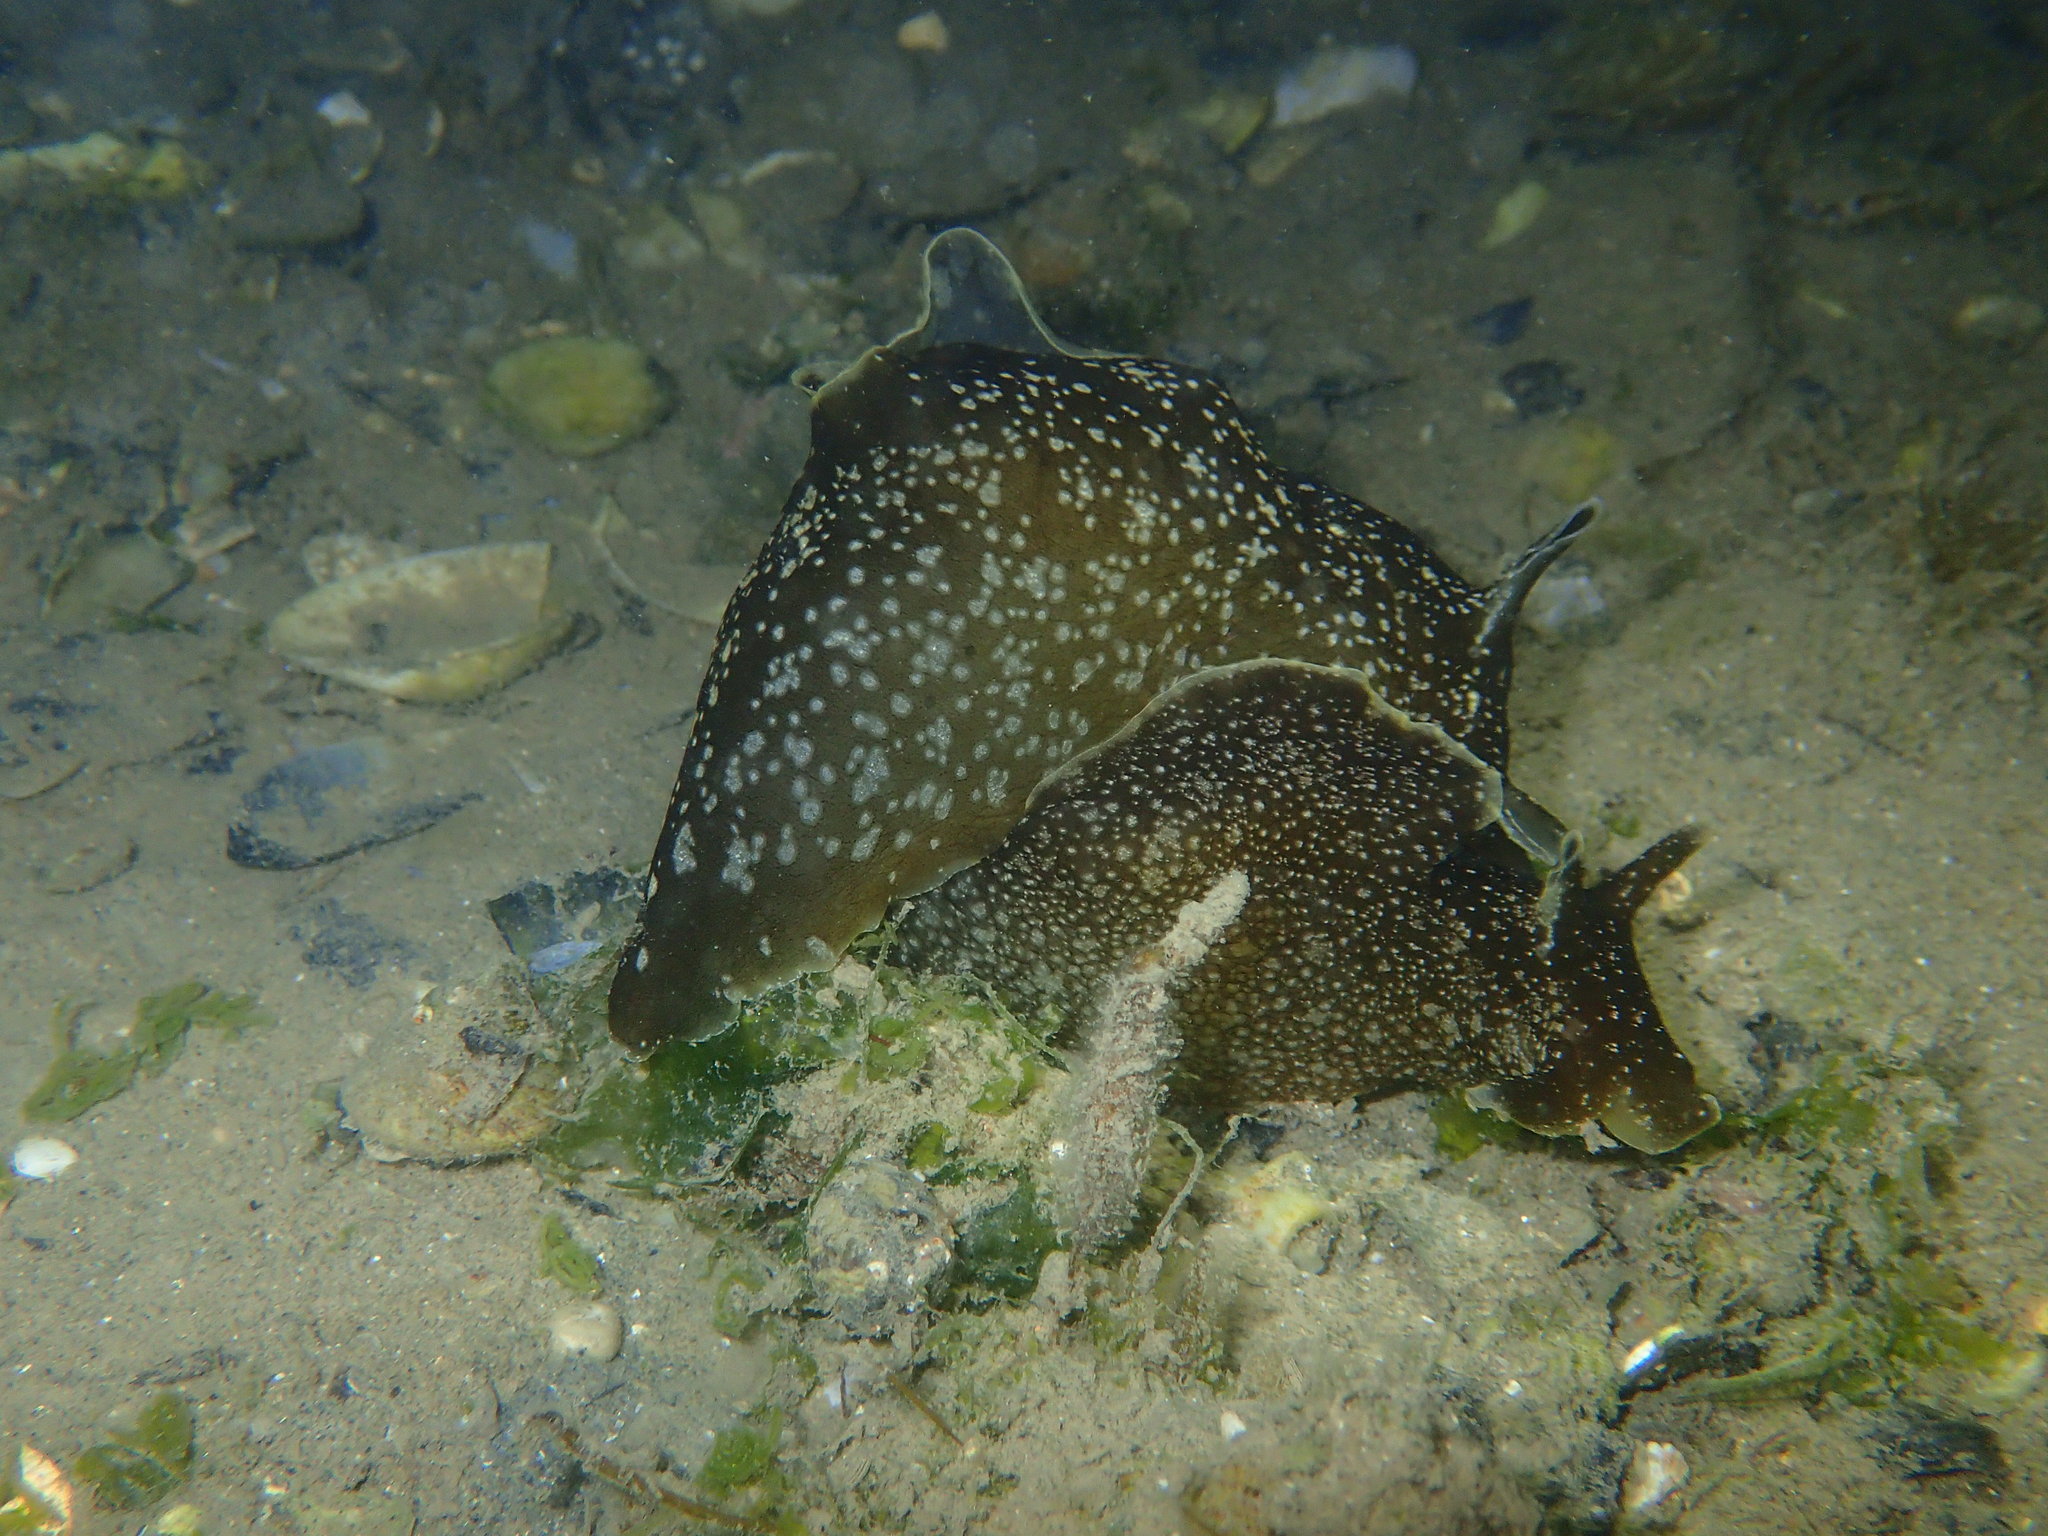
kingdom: Animalia
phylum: Mollusca
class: Gastropoda
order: Aplysiida
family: Aplysiidae
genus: Aplysia
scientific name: Aplysia punctata
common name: Common sea hare
